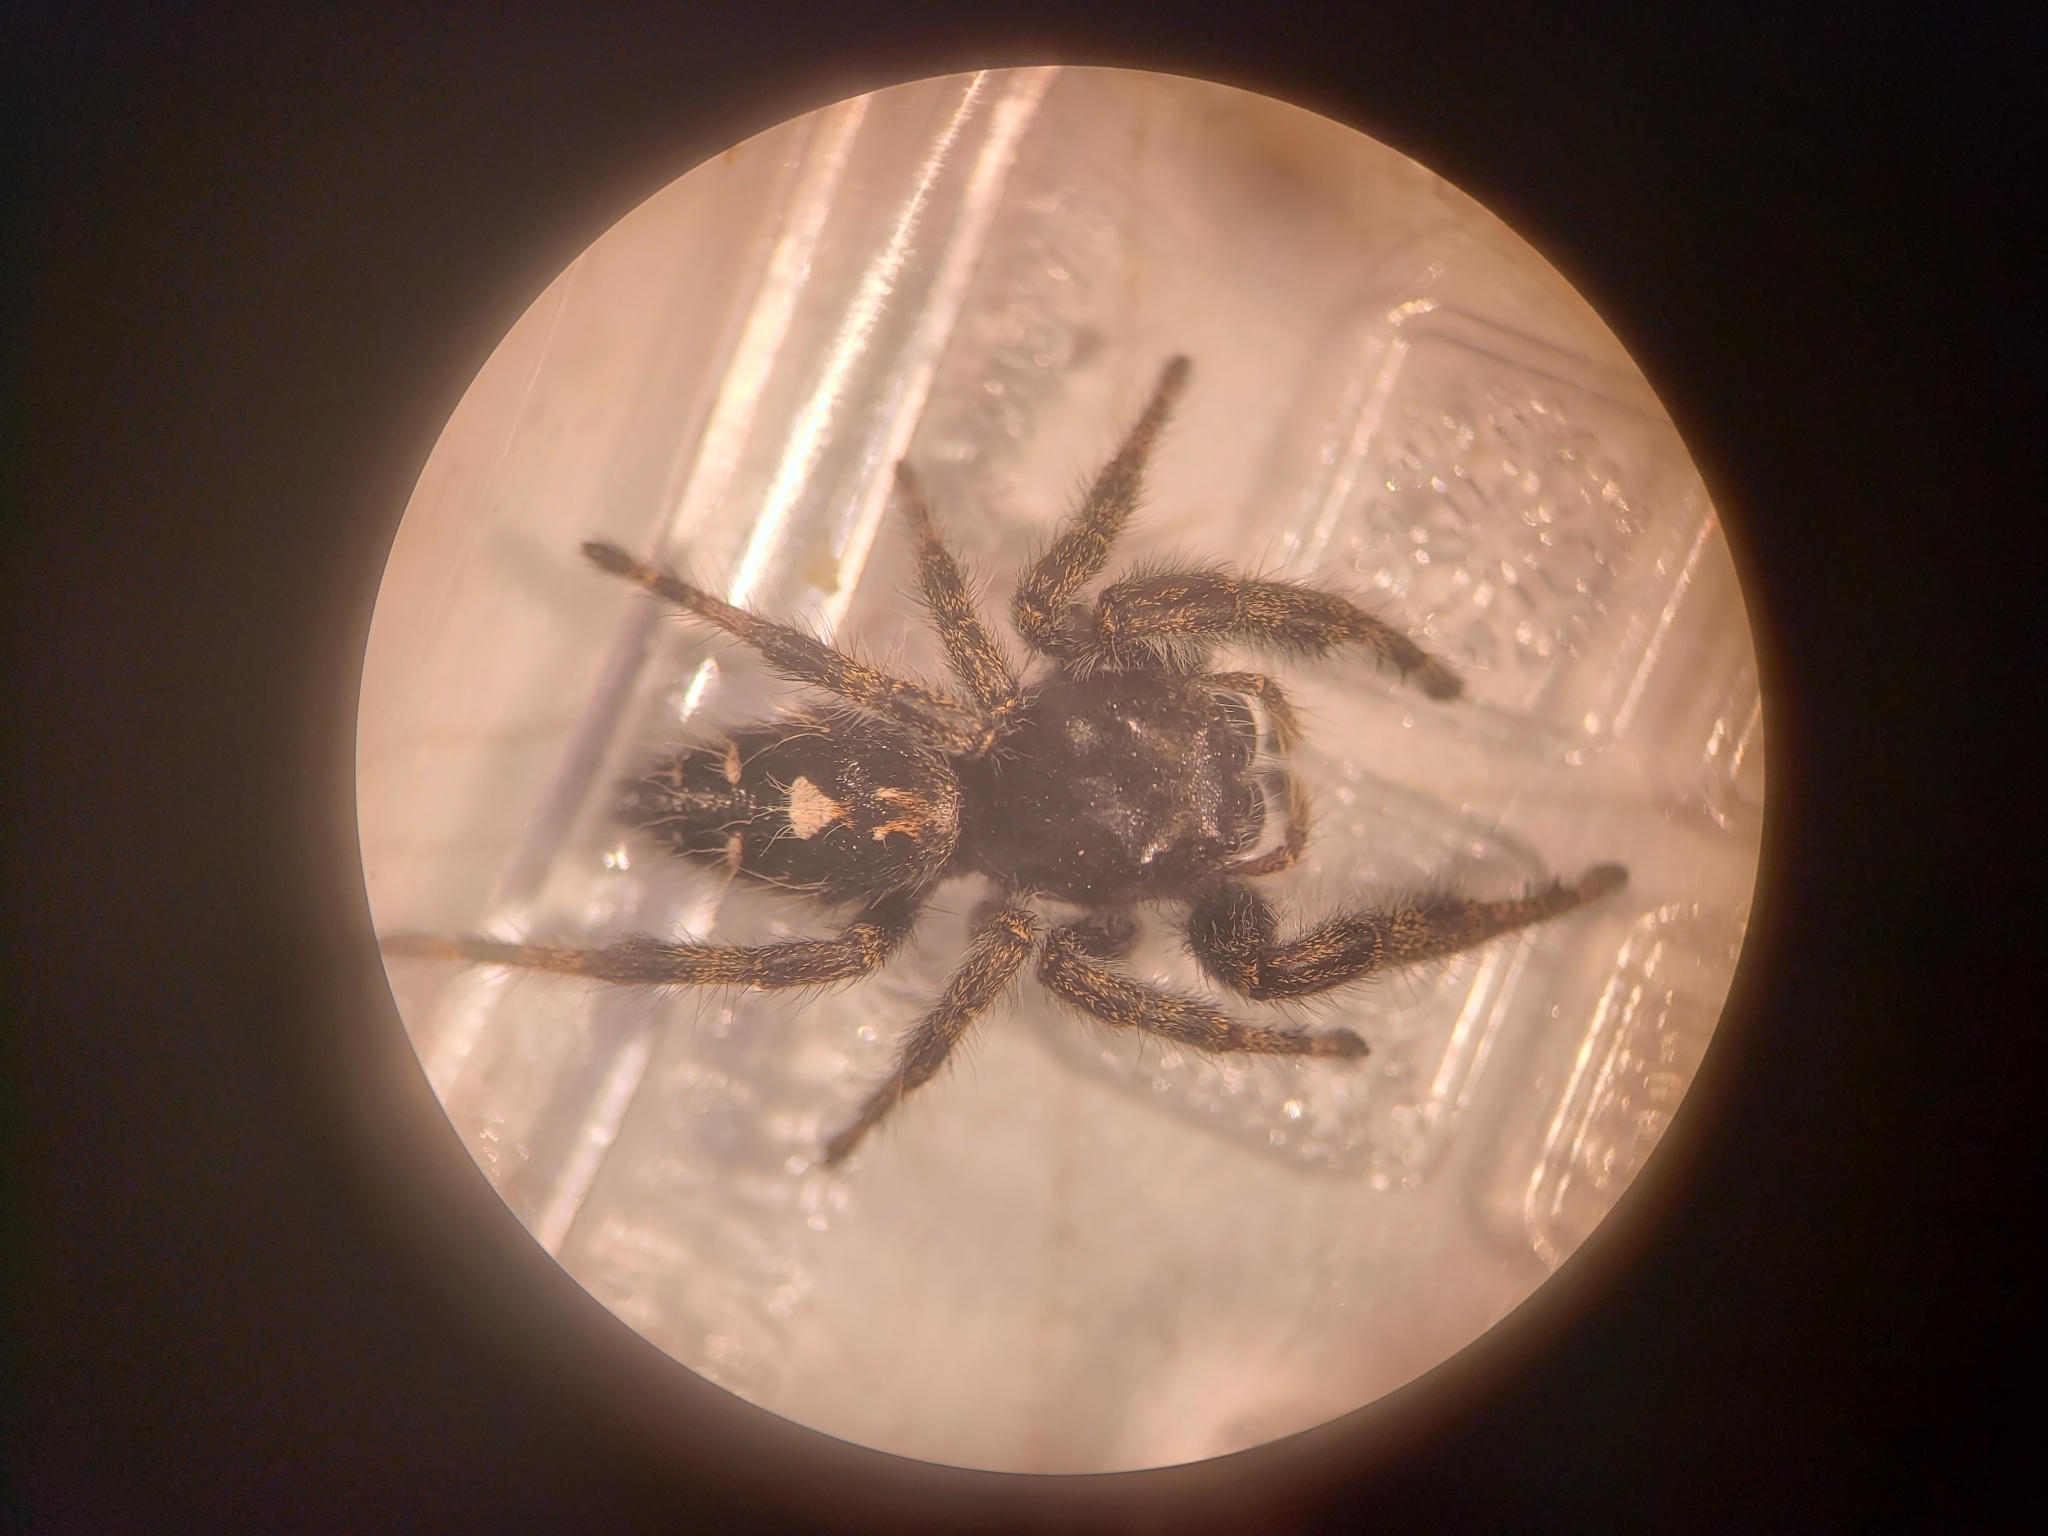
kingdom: Animalia
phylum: Arthropoda
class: Arachnida
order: Araneae
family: Salticidae
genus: Phidippus
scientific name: Phidippus audax
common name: Bold jumper
